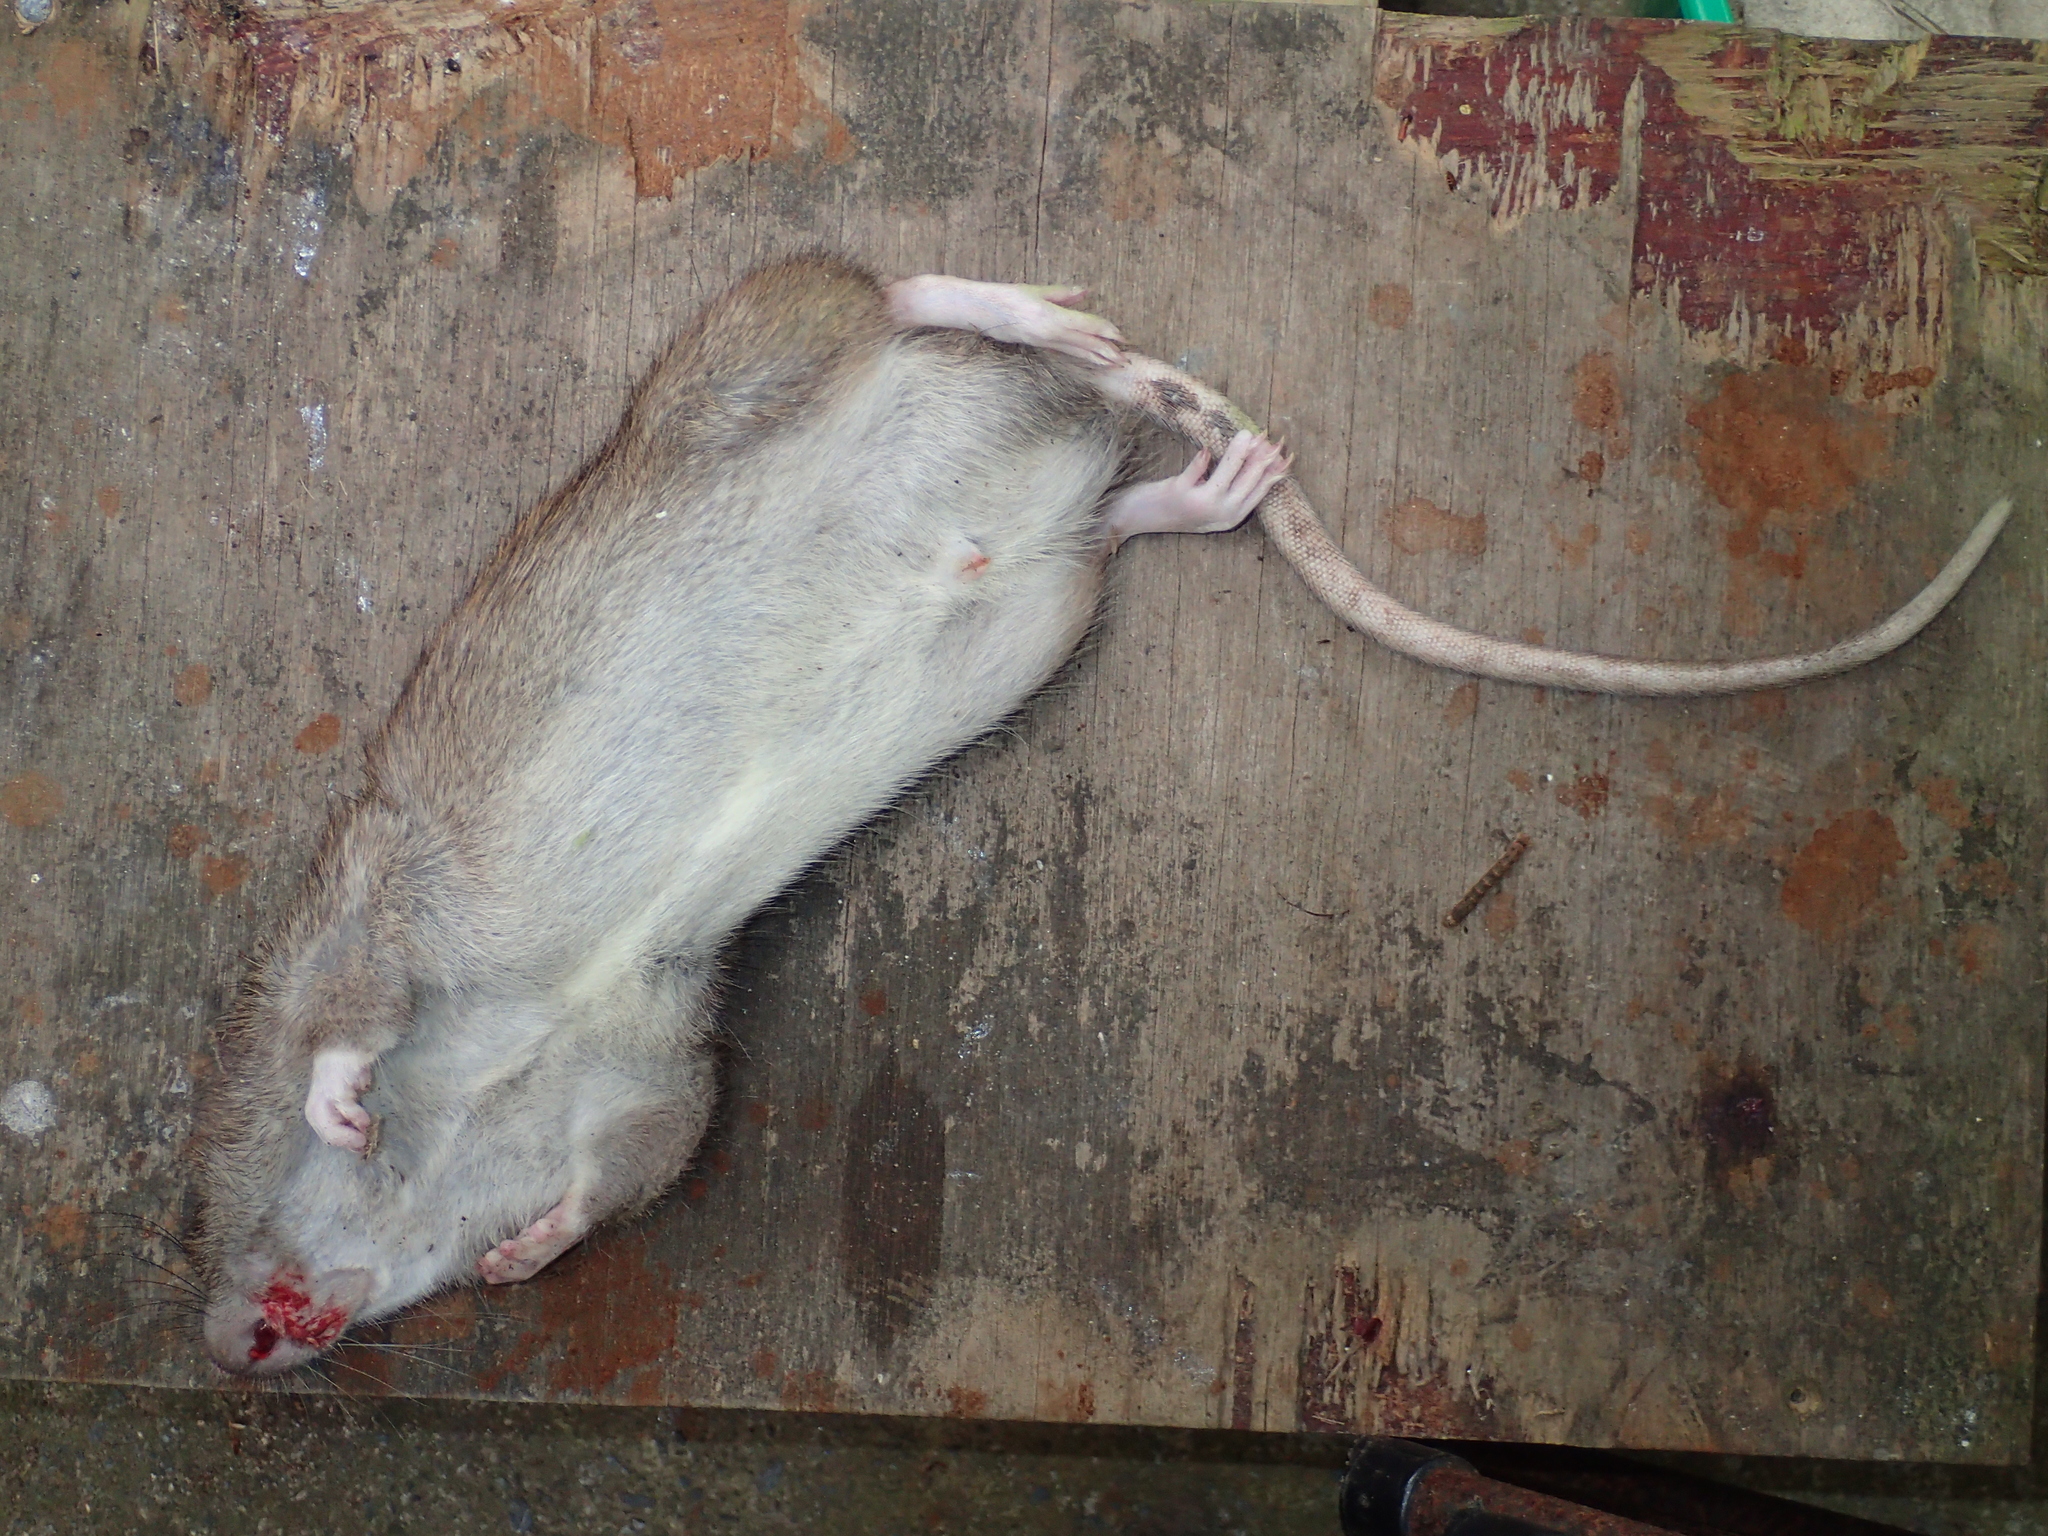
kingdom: Animalia
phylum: Chordata
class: Mammalia
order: Rodentia
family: Muridae
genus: Rattus
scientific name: Rattus norvegicus
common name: Brown rat
